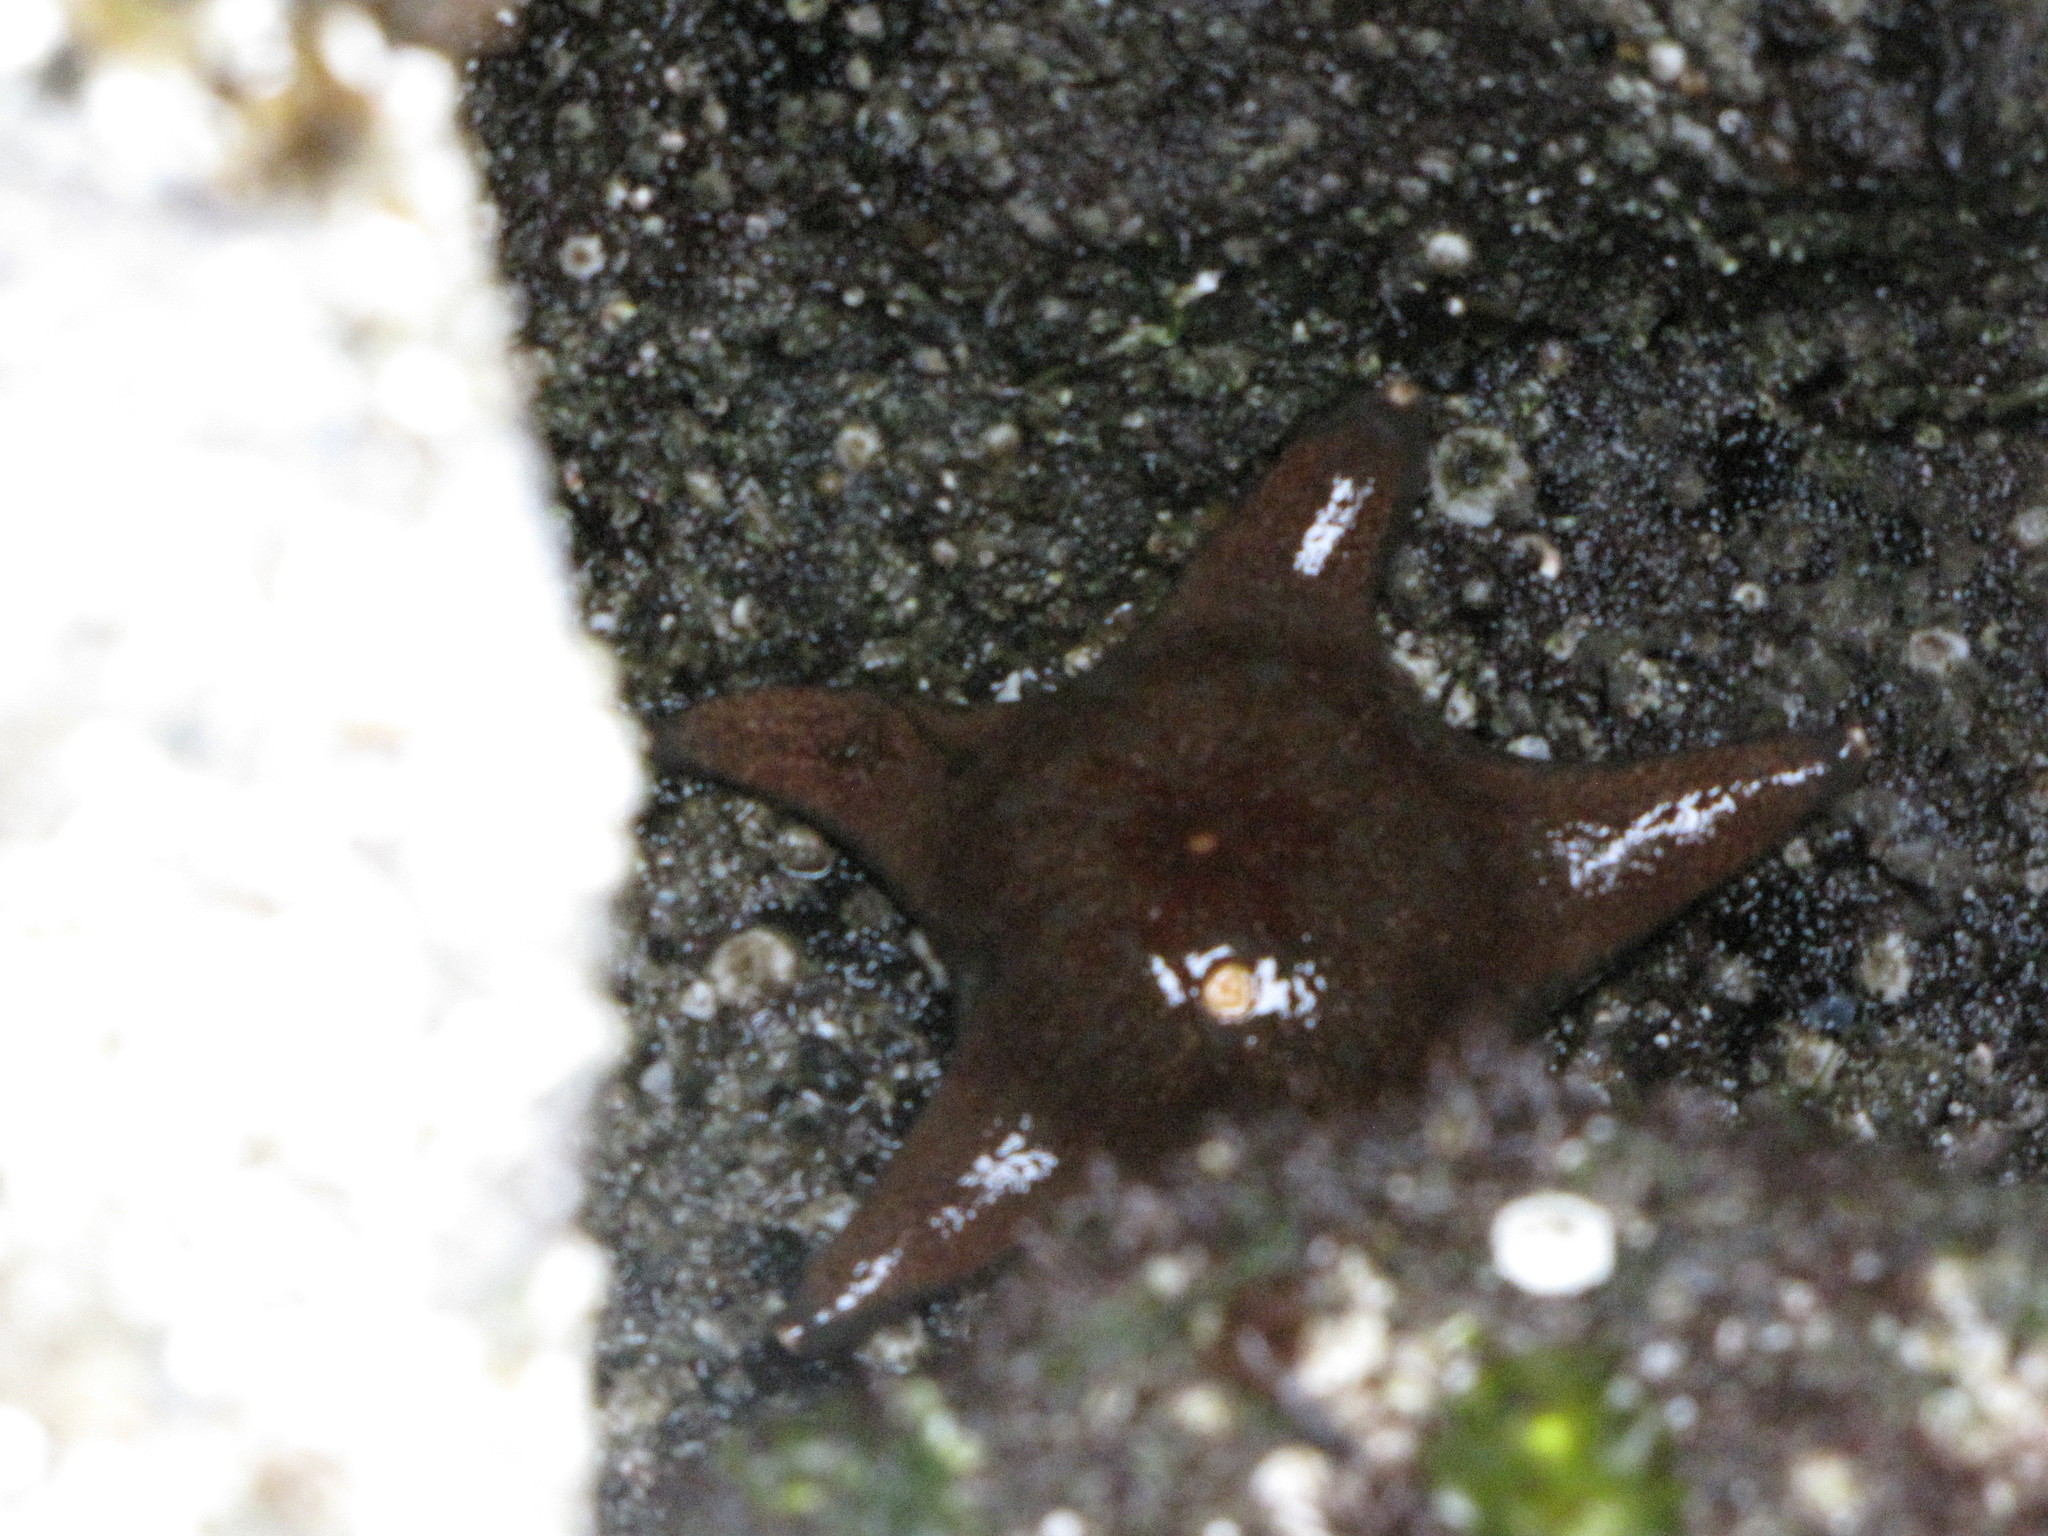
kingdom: Animalia
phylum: Echinodermata
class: Asteroidea
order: Valvatida
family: Asteropseidae
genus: Dermasterias
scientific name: Dermasterias imbricata
